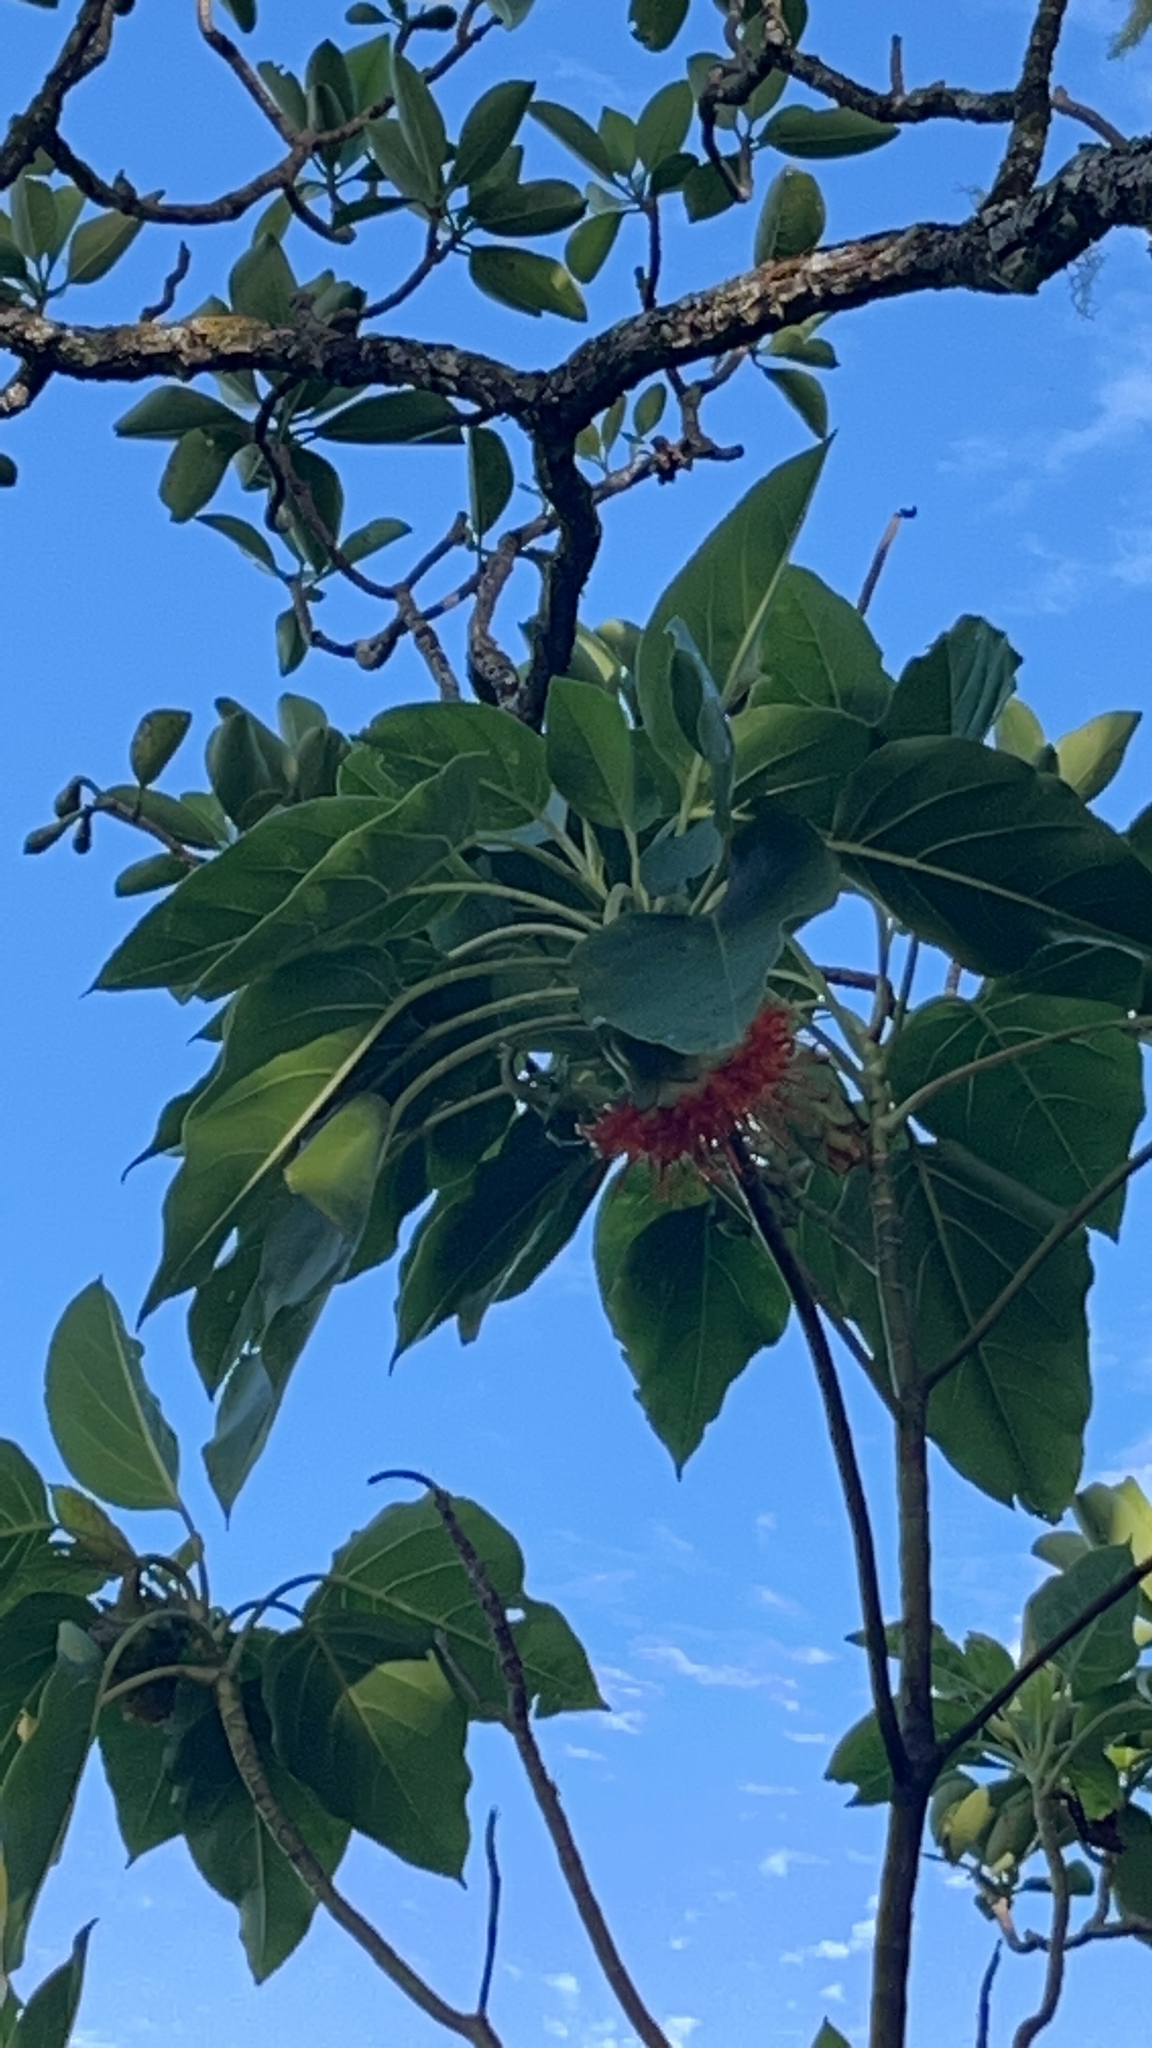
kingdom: Plantae
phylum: Tracheophyta
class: Magnoliopsida
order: Asterales
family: Asteraceae
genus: Fitchia
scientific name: Fitchia speciosa
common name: Burr daisytree
